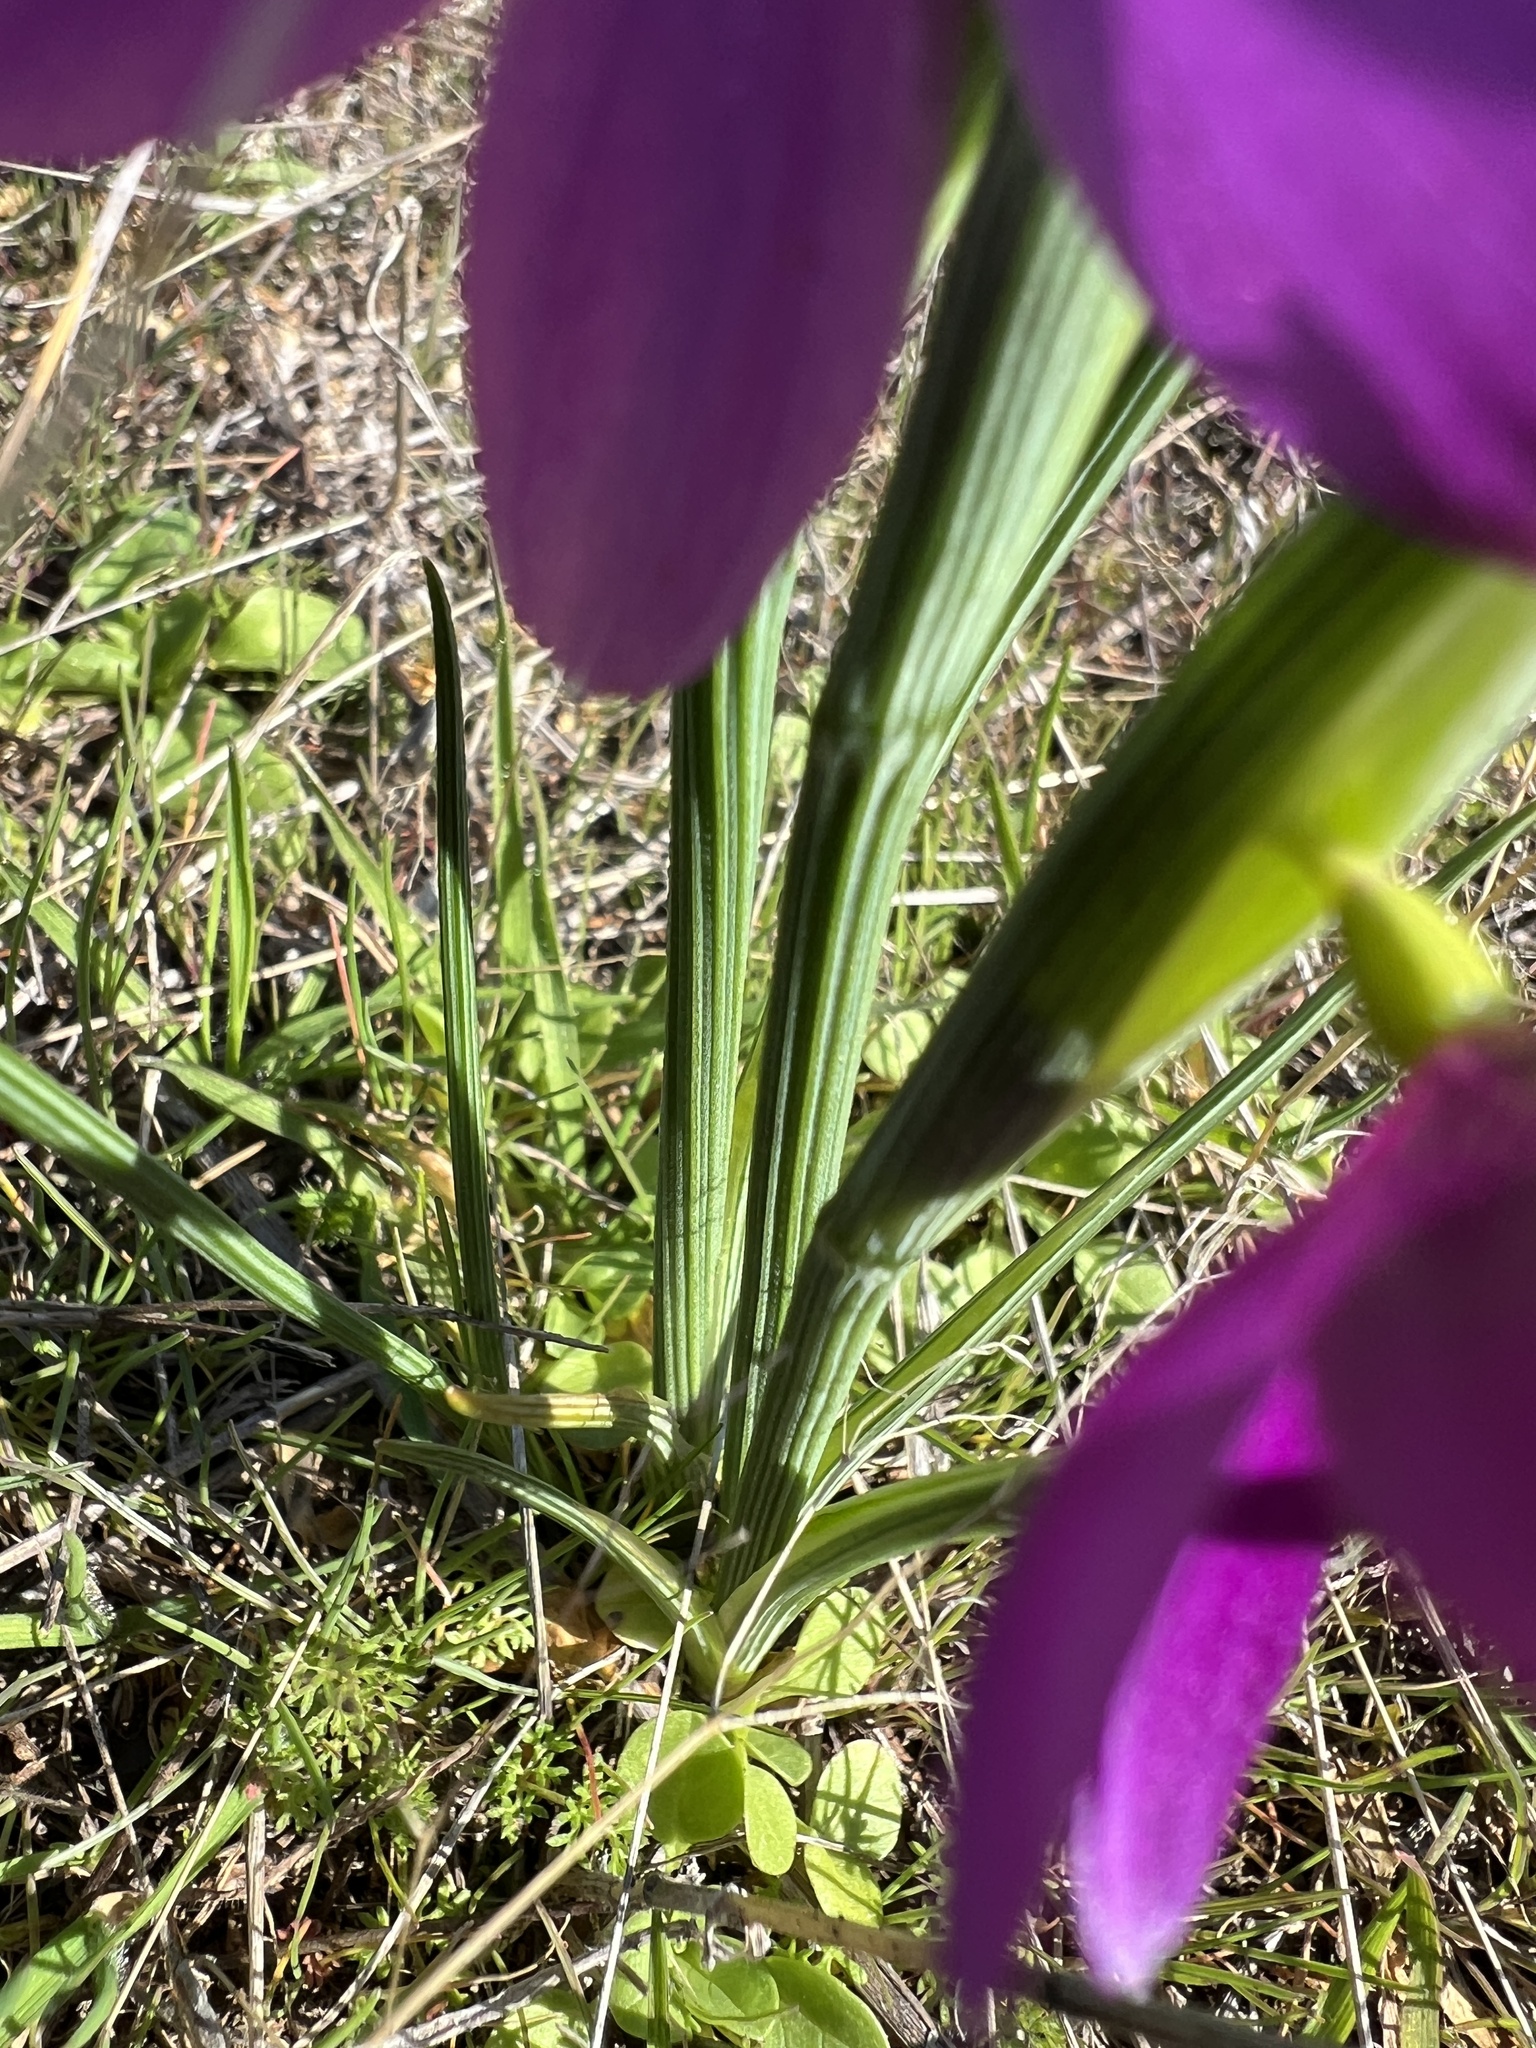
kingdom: Plantae
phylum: Tracheophyta
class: Liliopsida
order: Asparagales
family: Iridaceae
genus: Olsynium
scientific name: Olsynium douglasii
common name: Douglas' grasswidow
